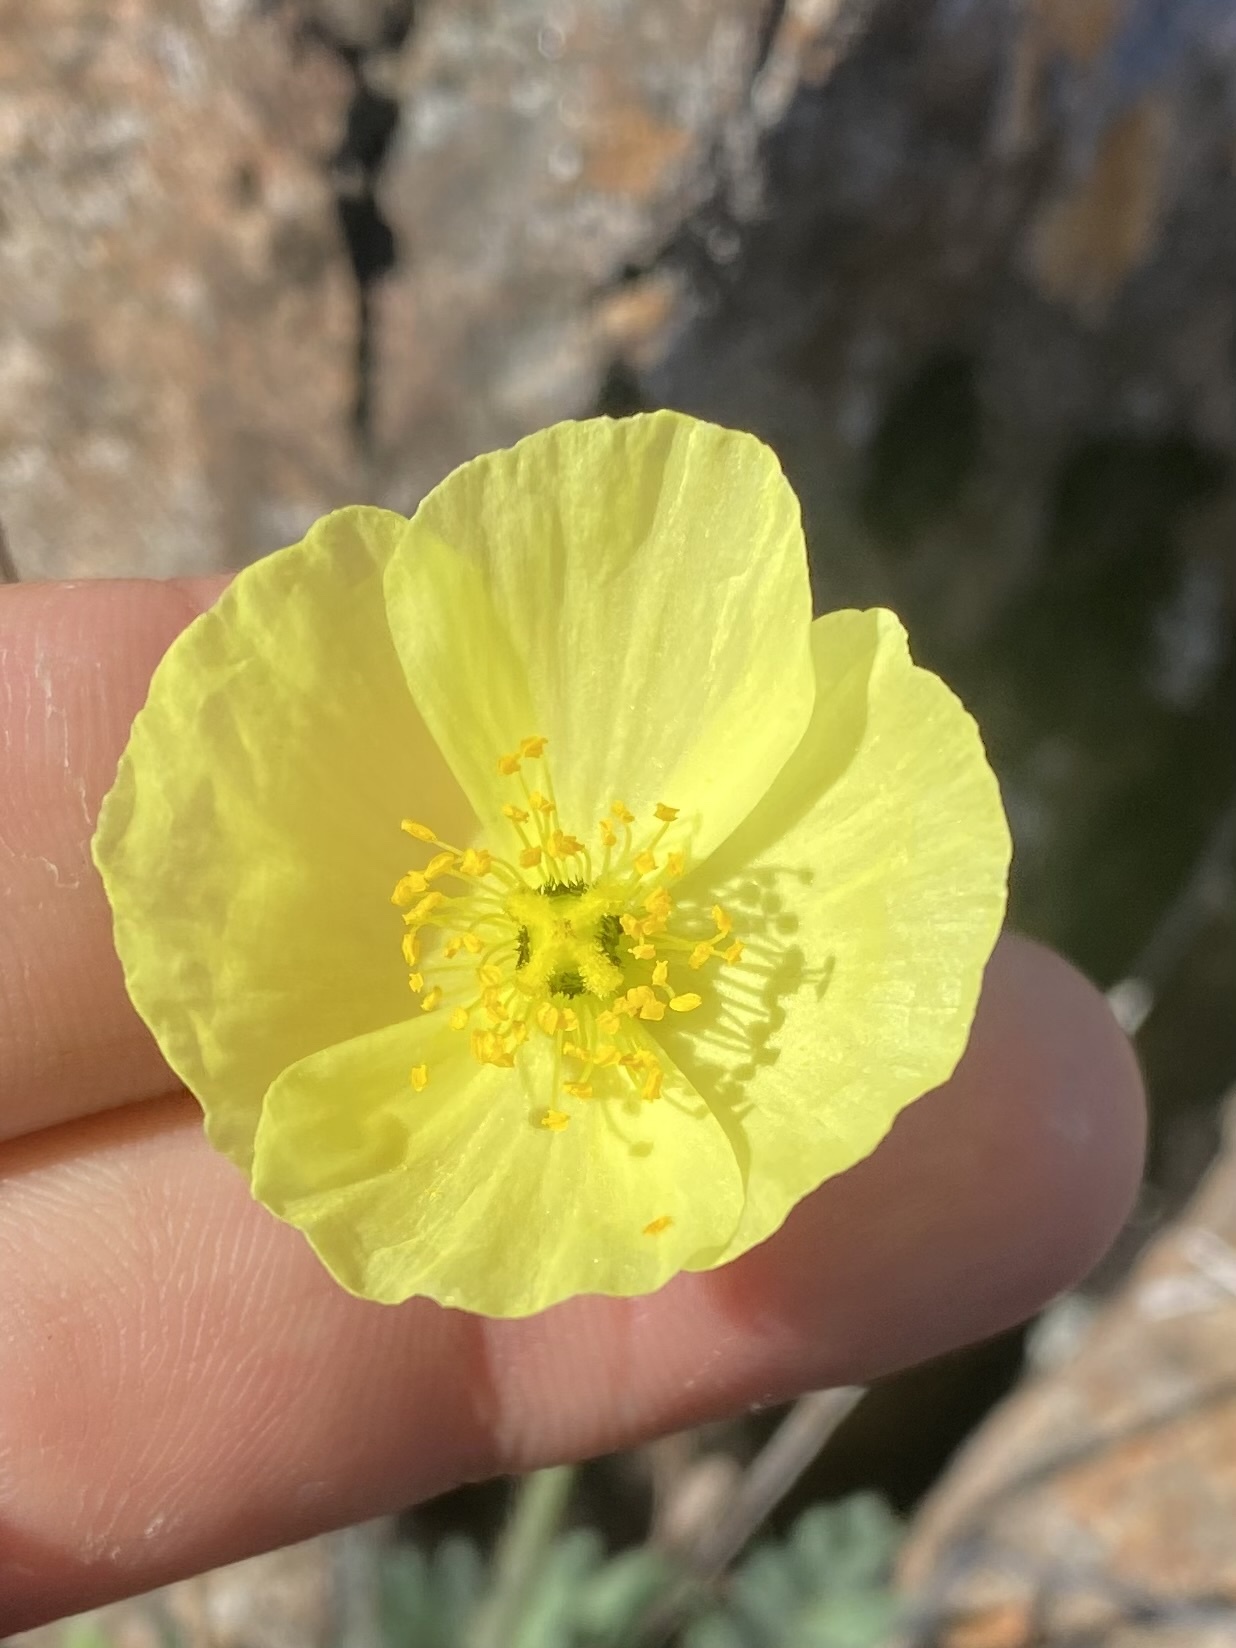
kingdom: Plantae
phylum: Tracheophyta
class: Magnoliopsida
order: Ranunculales
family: Papaveraceae
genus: Papaver
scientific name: Papaver pulvinatum
